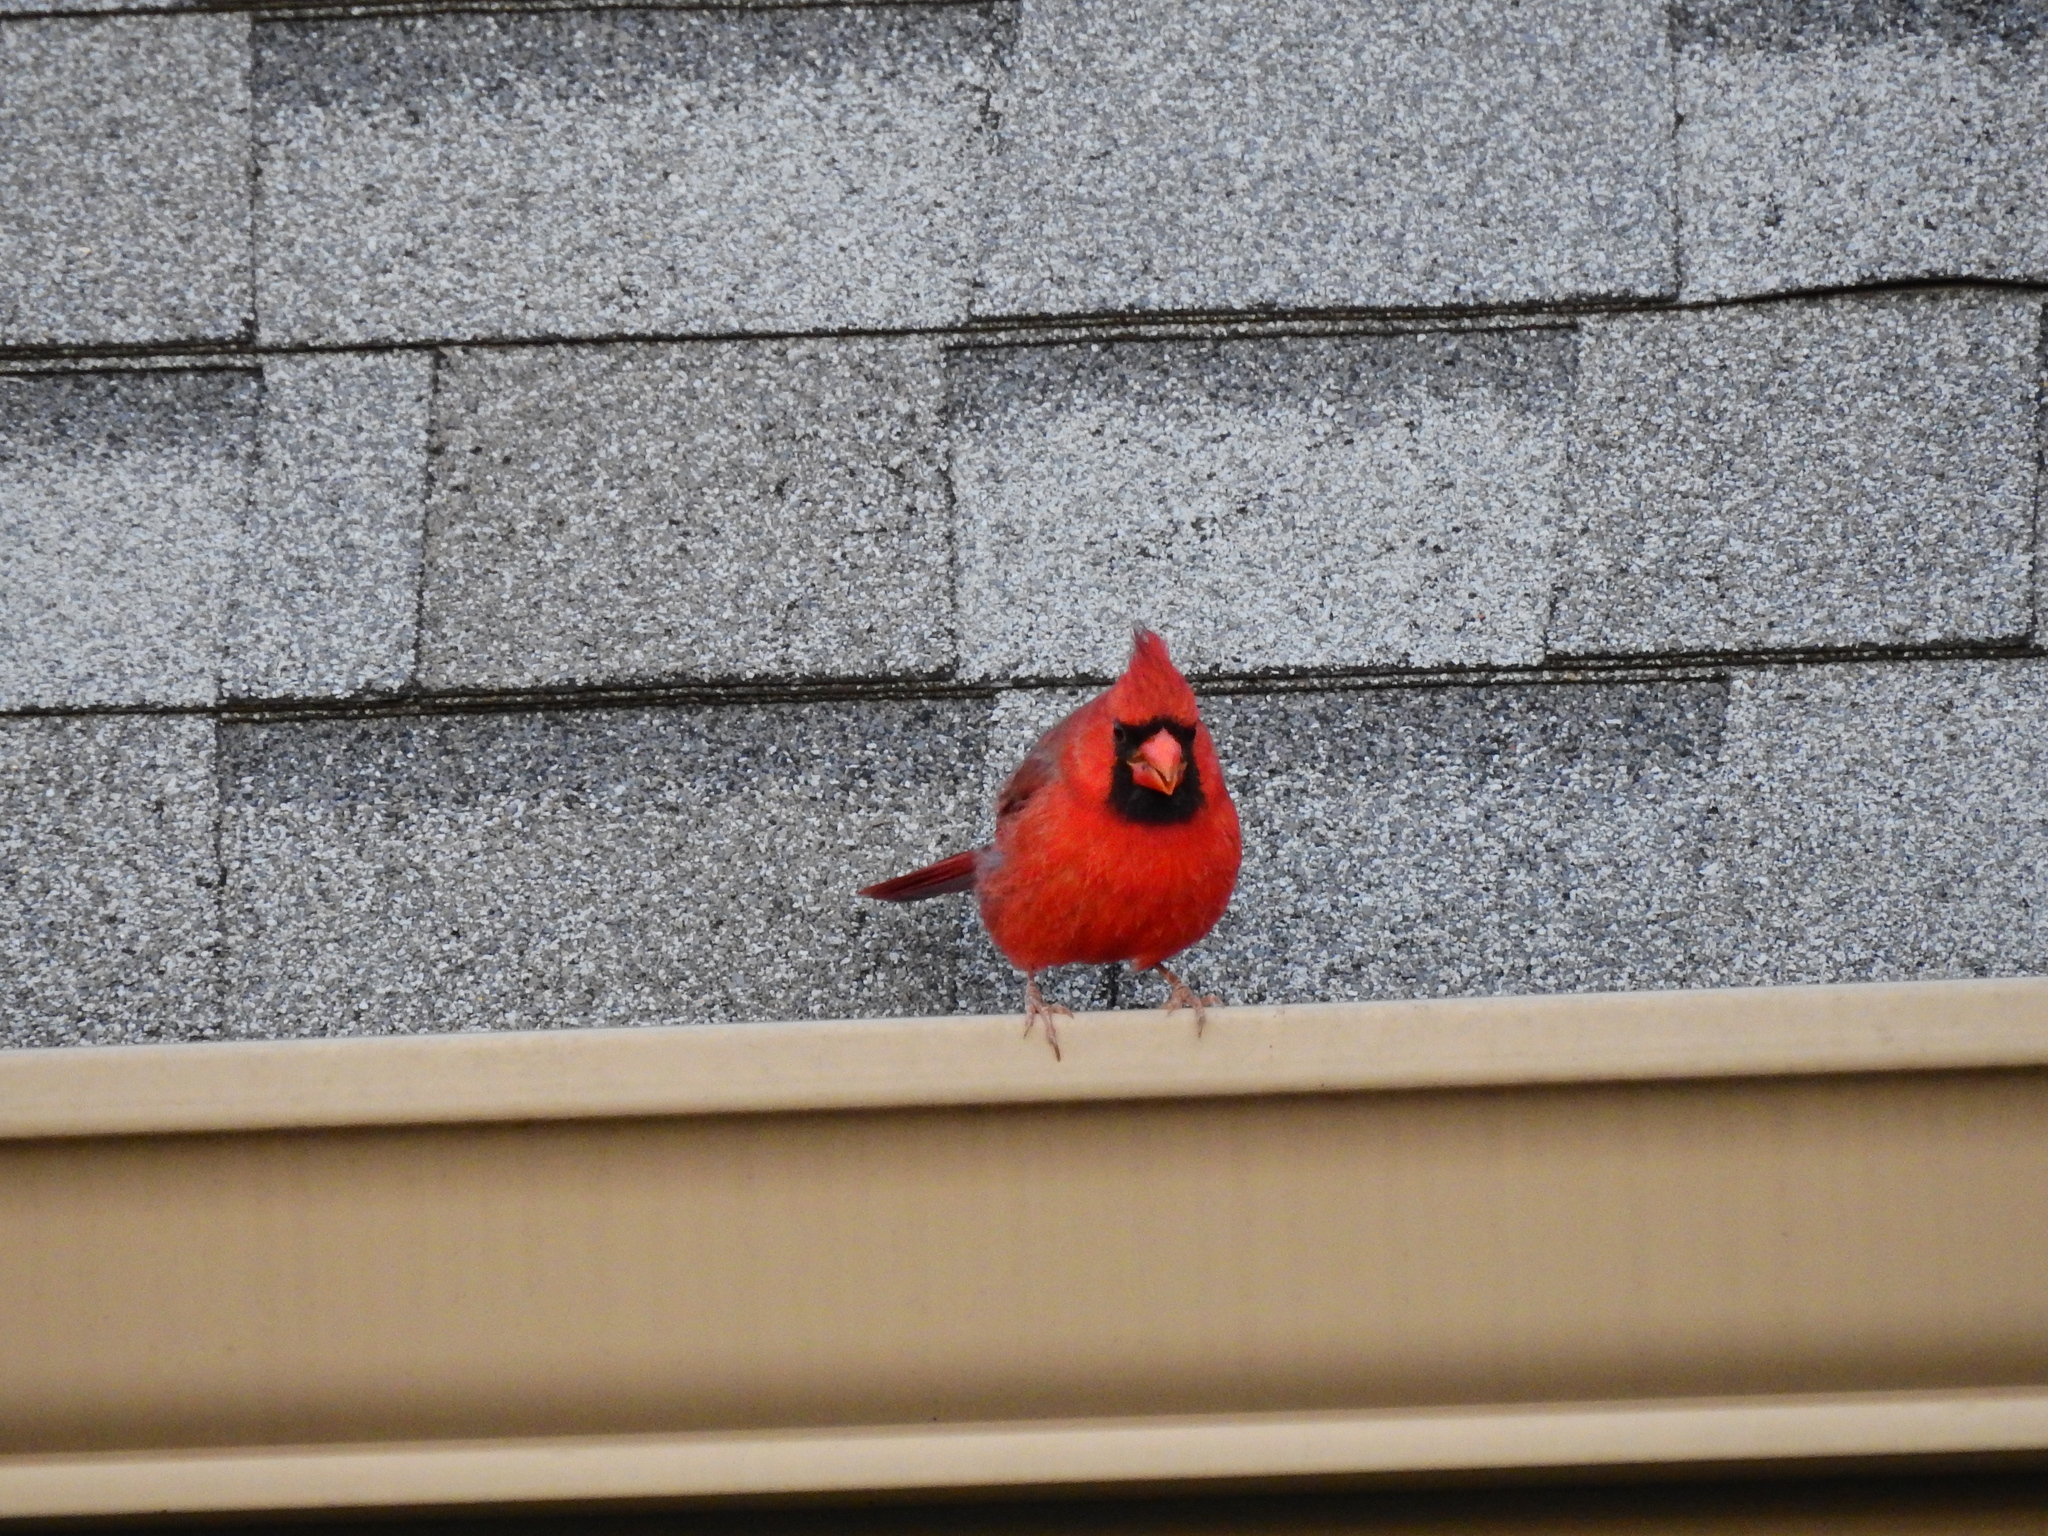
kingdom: Animalia
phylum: Chordata
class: Aves
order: Passeriformes
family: Cardinalidae
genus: Cardinalis
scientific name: Cardinalis cardinalis
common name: Northern cardinal
